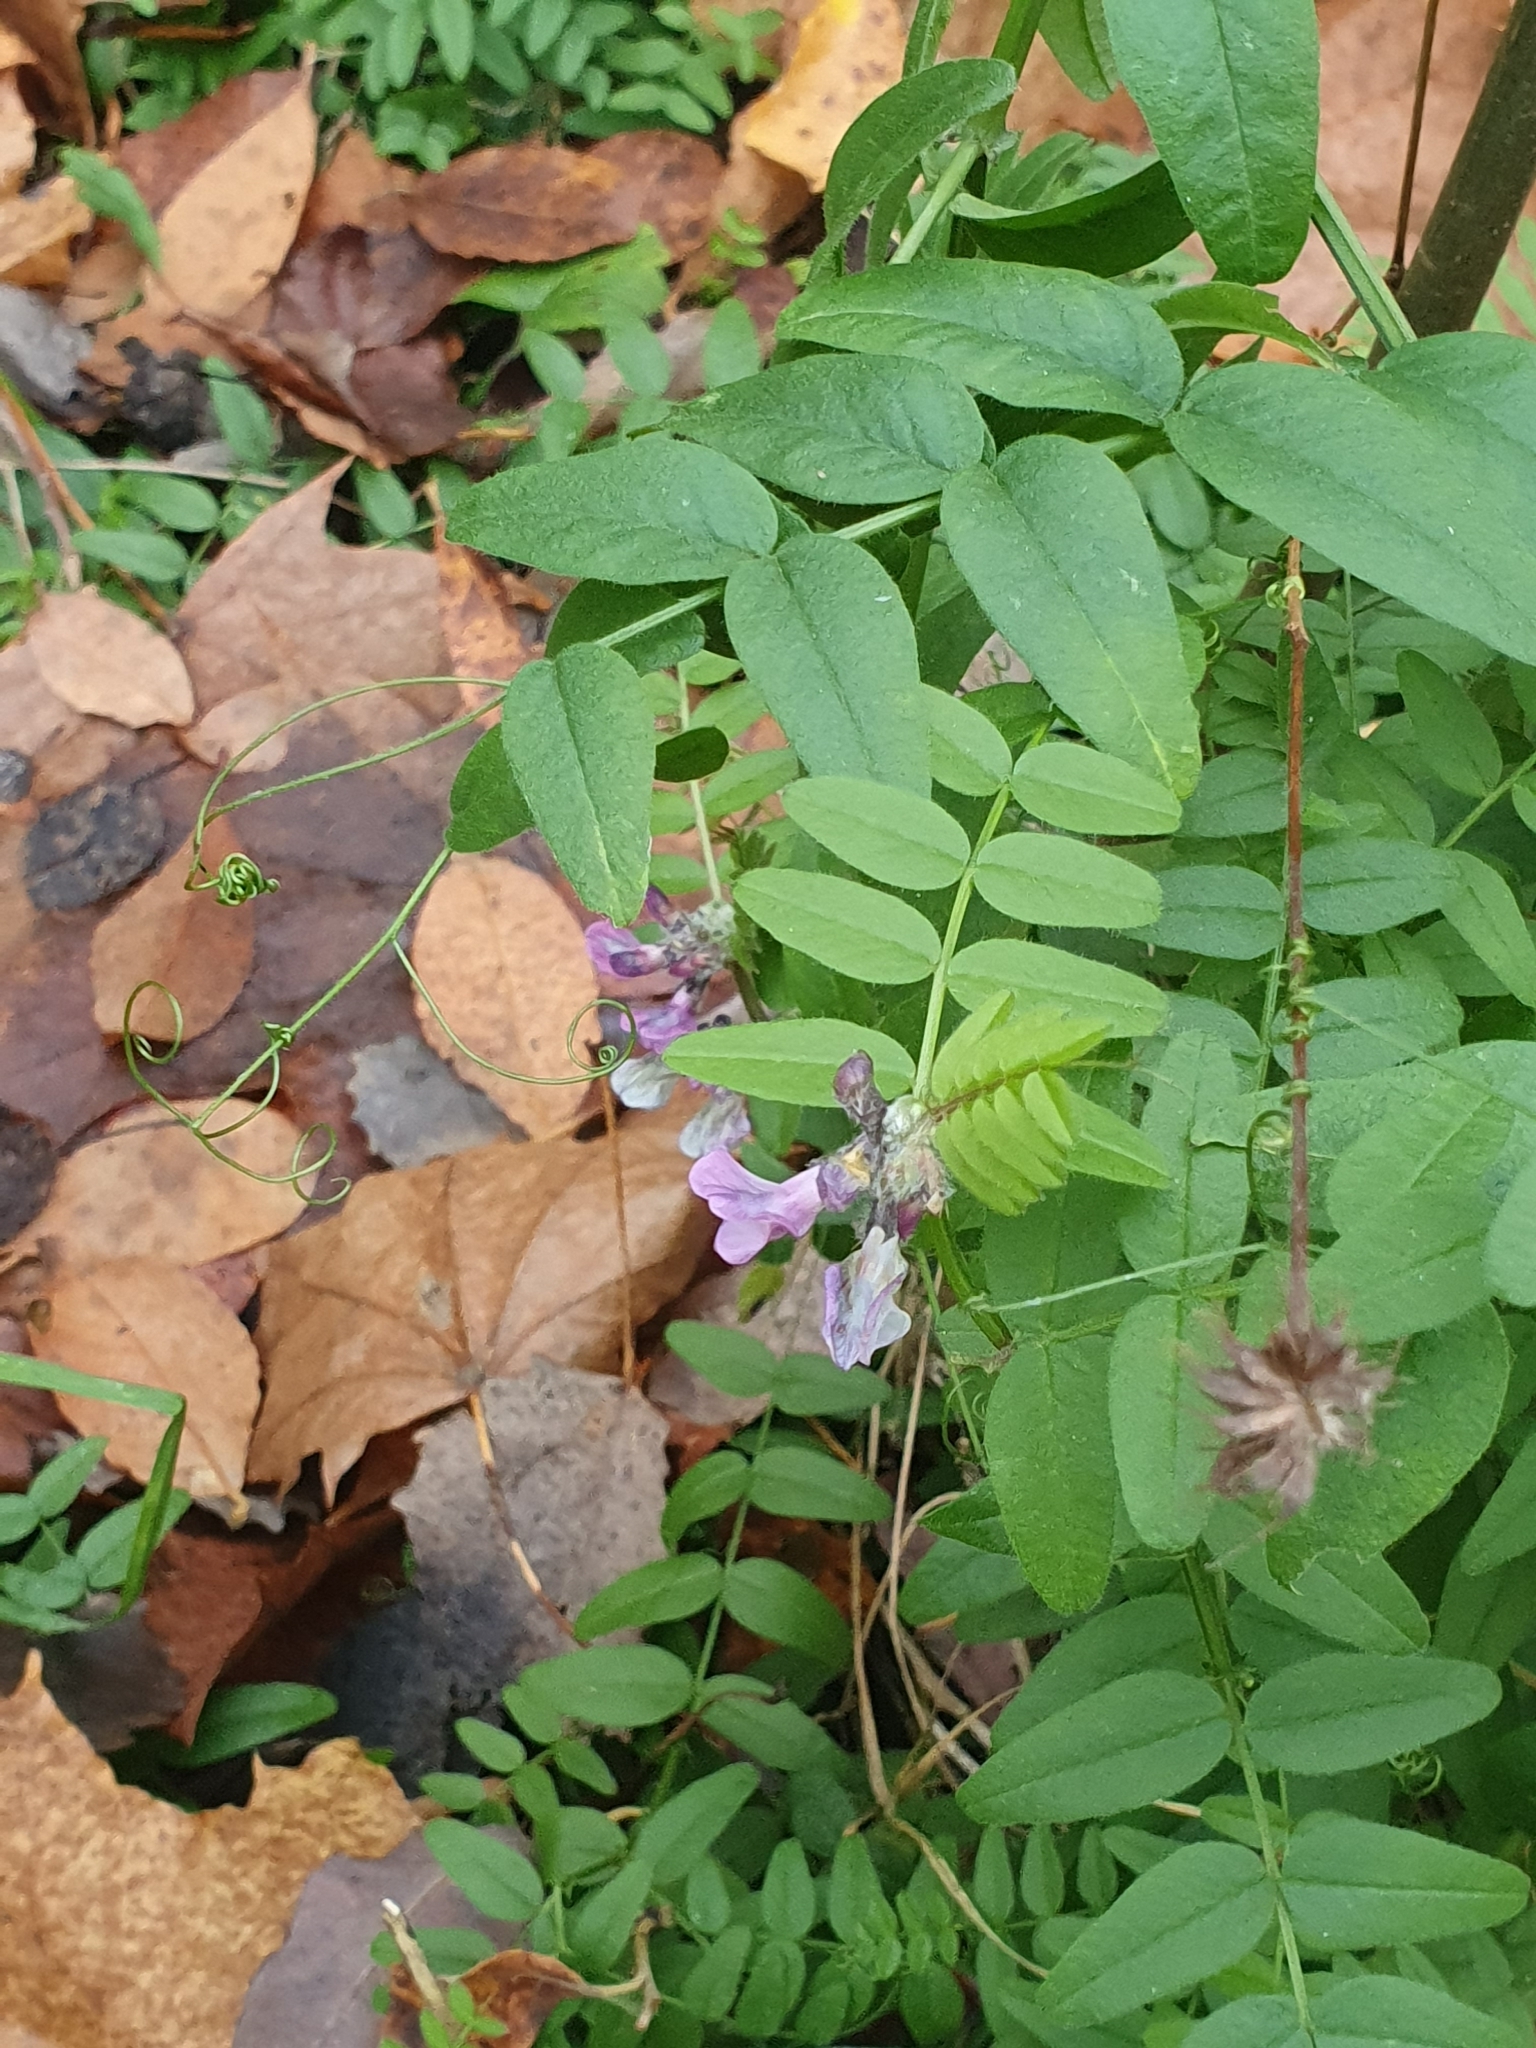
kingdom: Plantae
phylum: Tracheophyta
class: Magnoliopsida
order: Fabales
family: Fabaceae
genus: Vicia
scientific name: Vicia sepium
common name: Bush vetch
